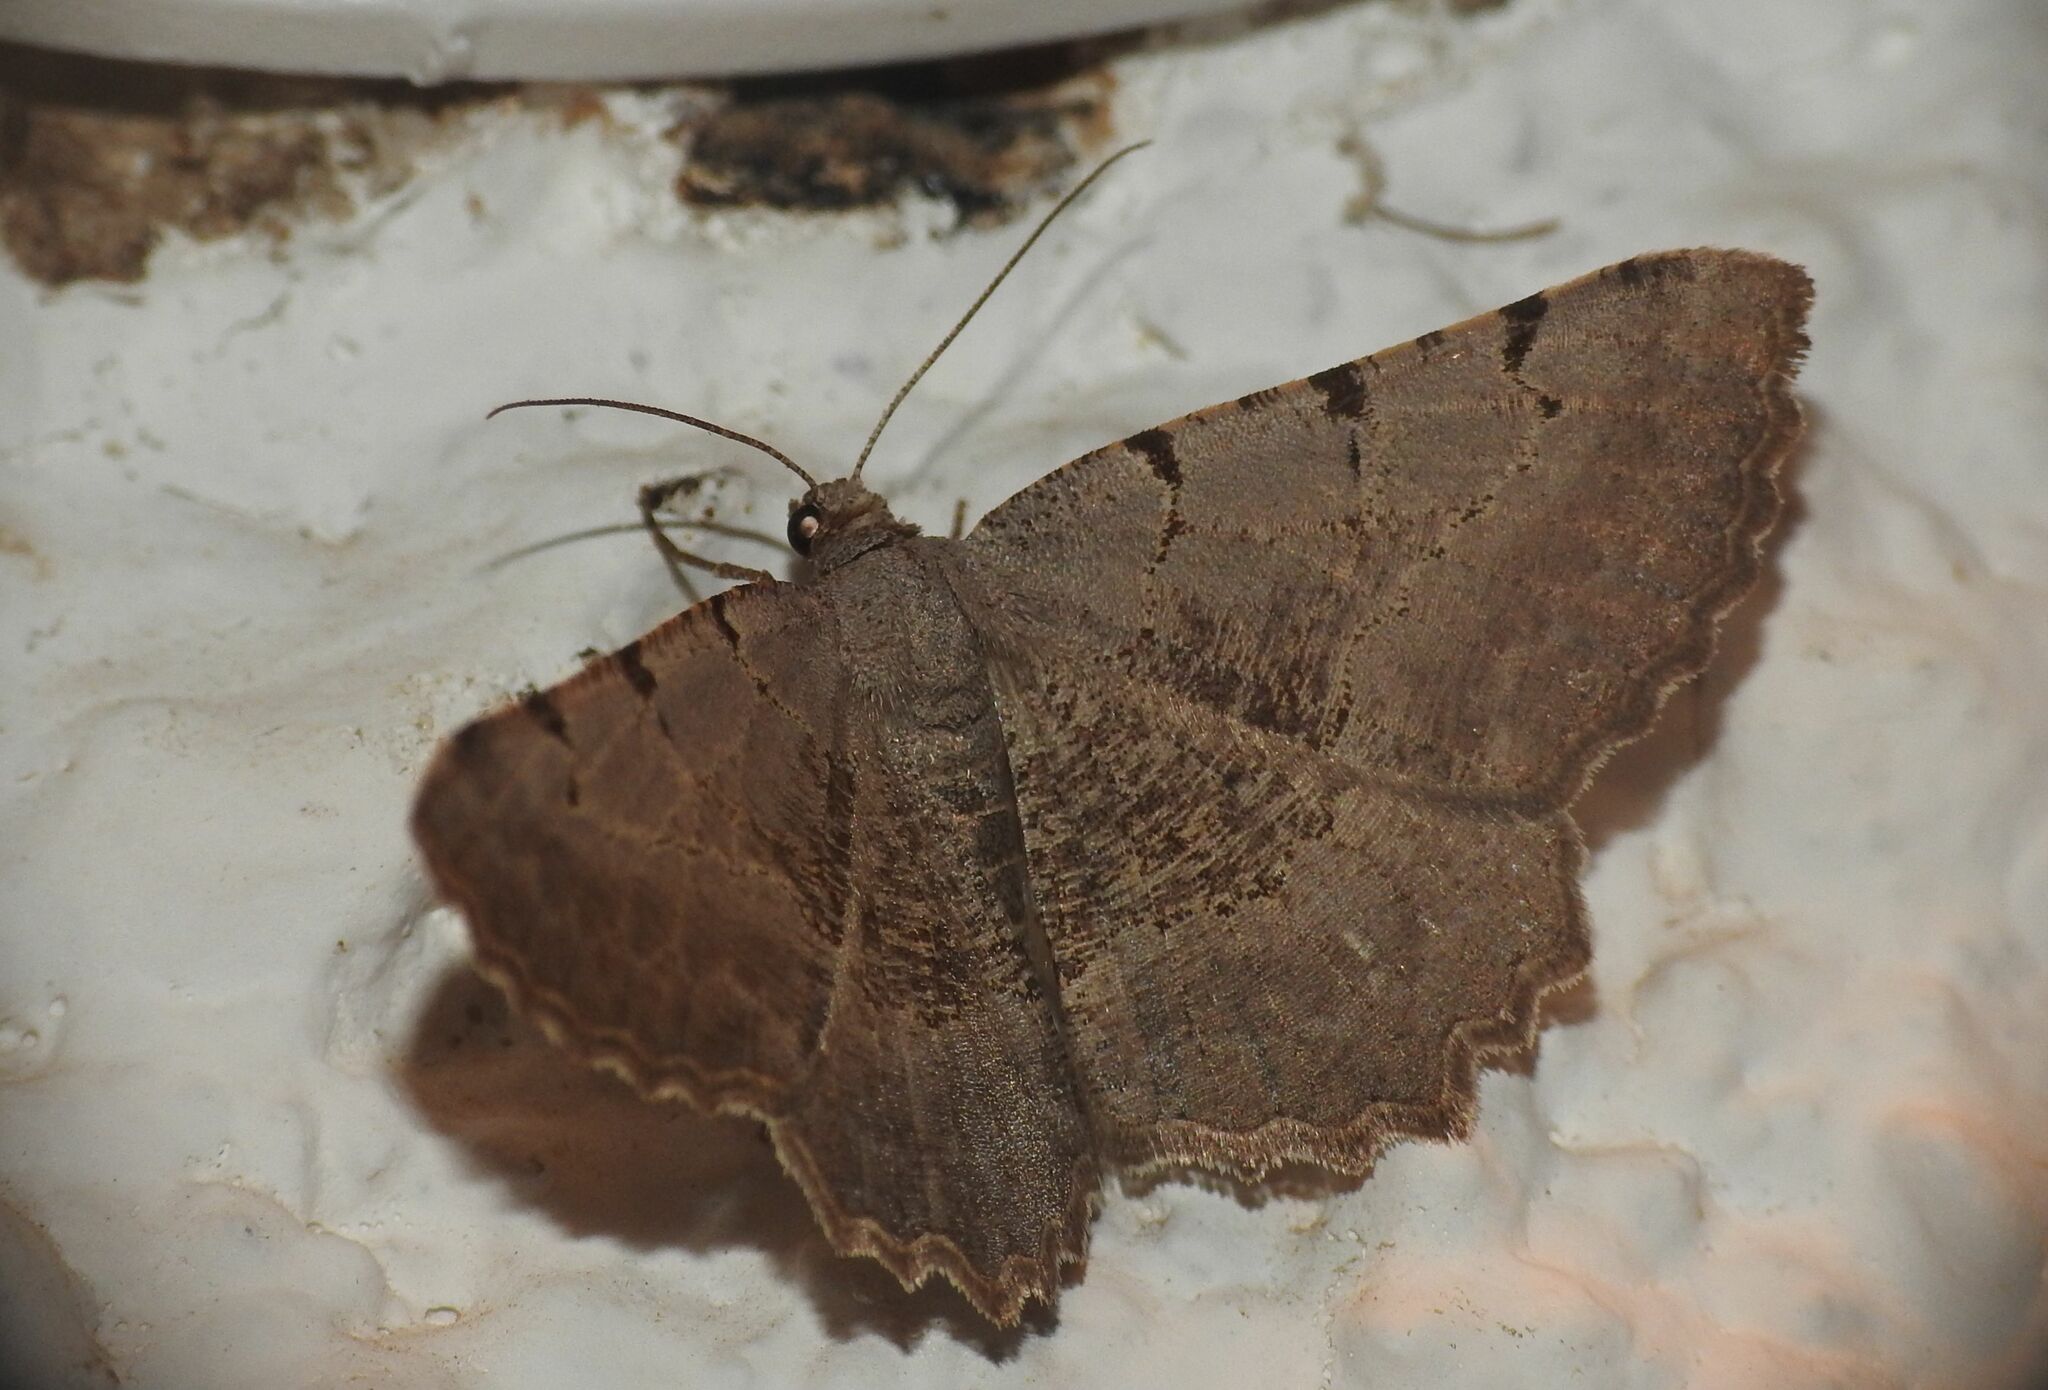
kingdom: Animalia
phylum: Arthropoda
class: Insecta
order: Lepidoptera
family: Geometridae
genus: Neognopharmia
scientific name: Neognopharmia stevenaria
